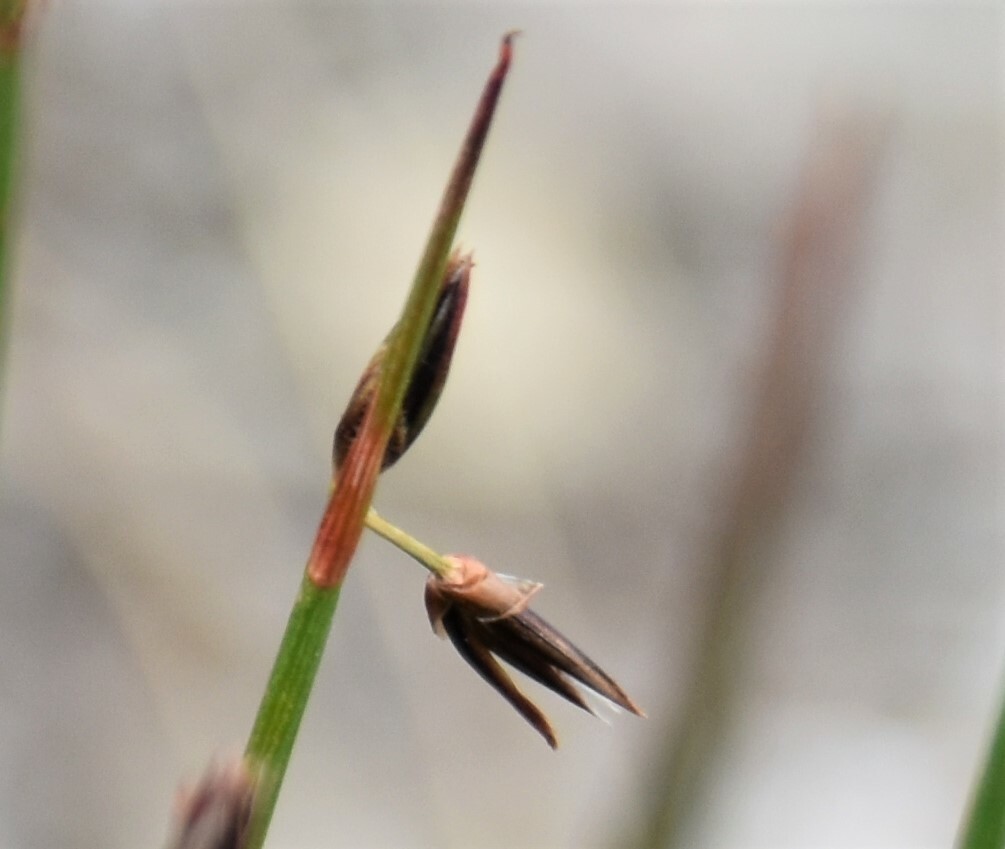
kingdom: Plantae
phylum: Tracheophyta
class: Liliopsida
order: Poales
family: Juncaceae
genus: Juncus
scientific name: Juncus drummondii
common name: Drummond's rush
